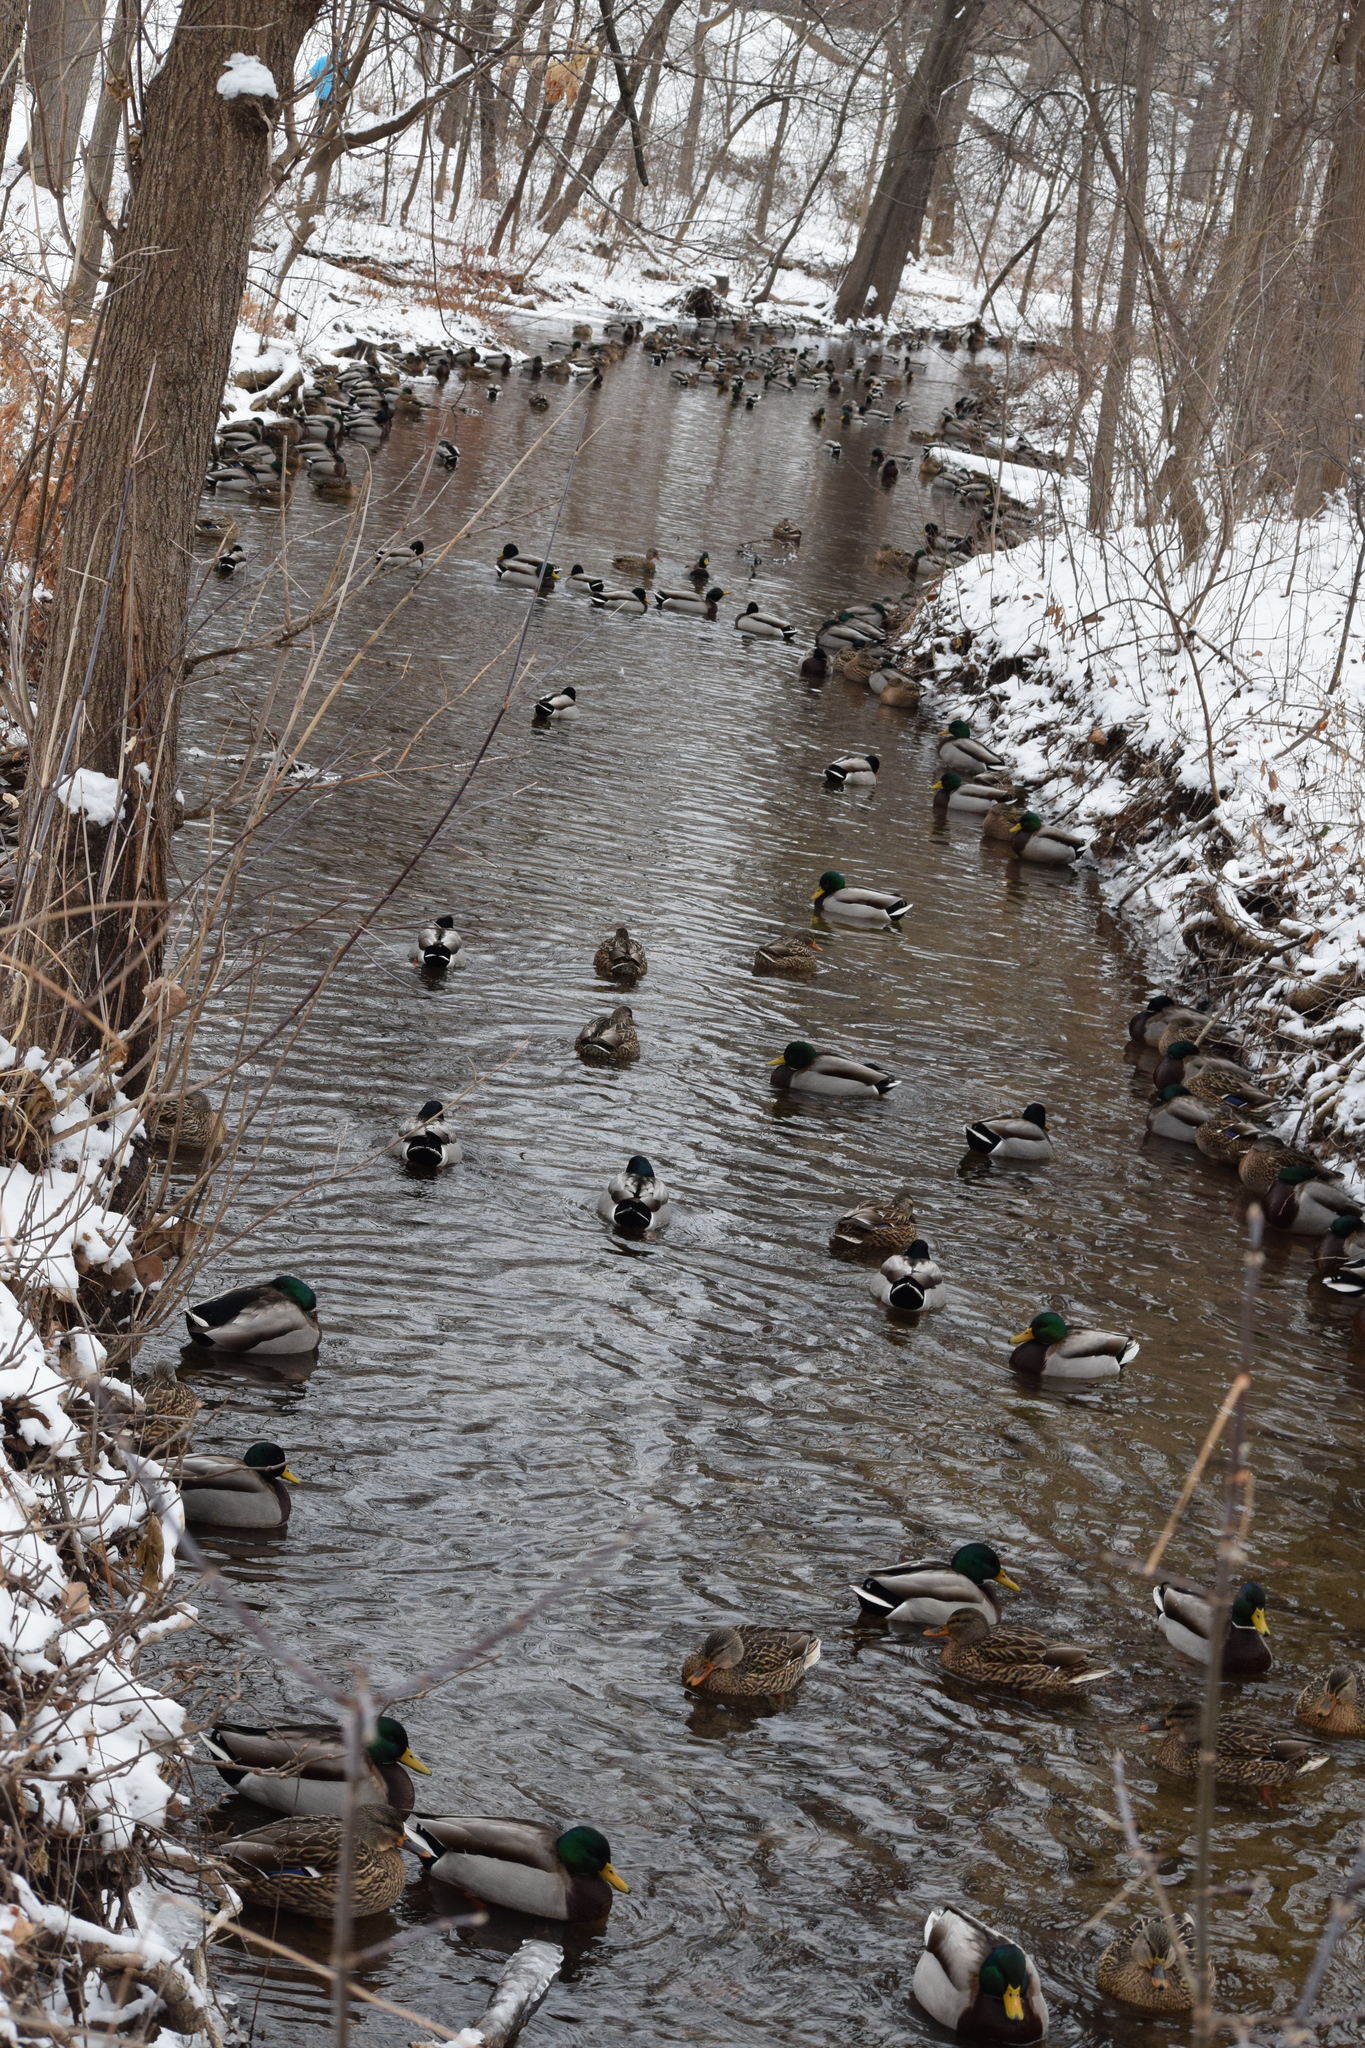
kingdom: Animalia
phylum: Chordata
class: Aves
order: Anseriformes
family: Anatidae
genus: Anas
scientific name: Anas platyrhynchos
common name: Mallard
